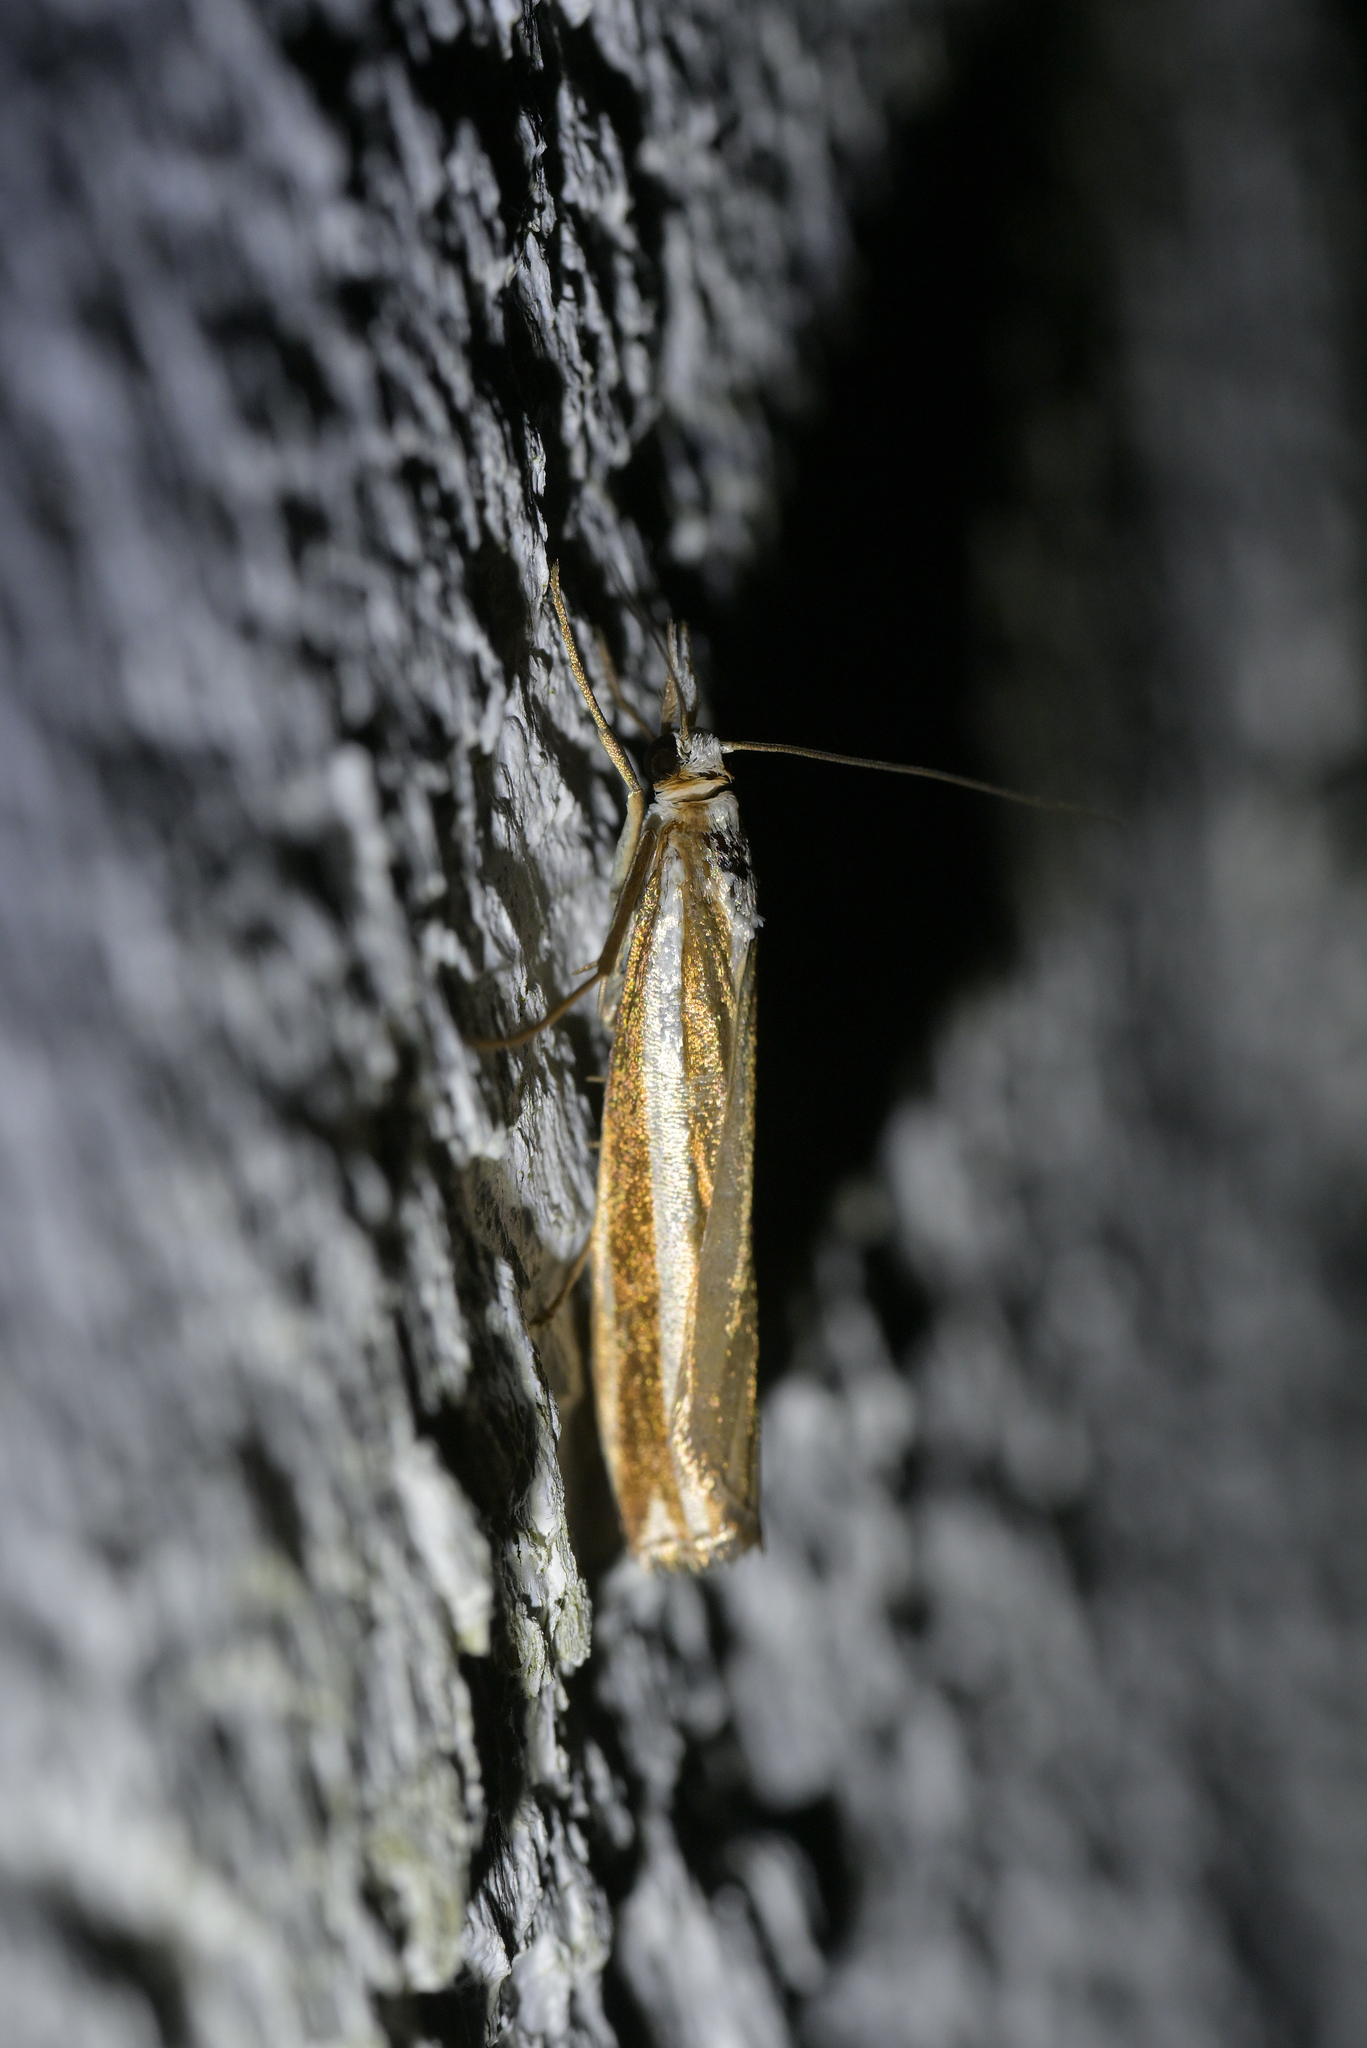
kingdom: Animalia
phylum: Arthropoda
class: Insecta
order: Lepidoptera
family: Crambidae
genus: Orocrambus
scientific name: Orocrambus apicellus
